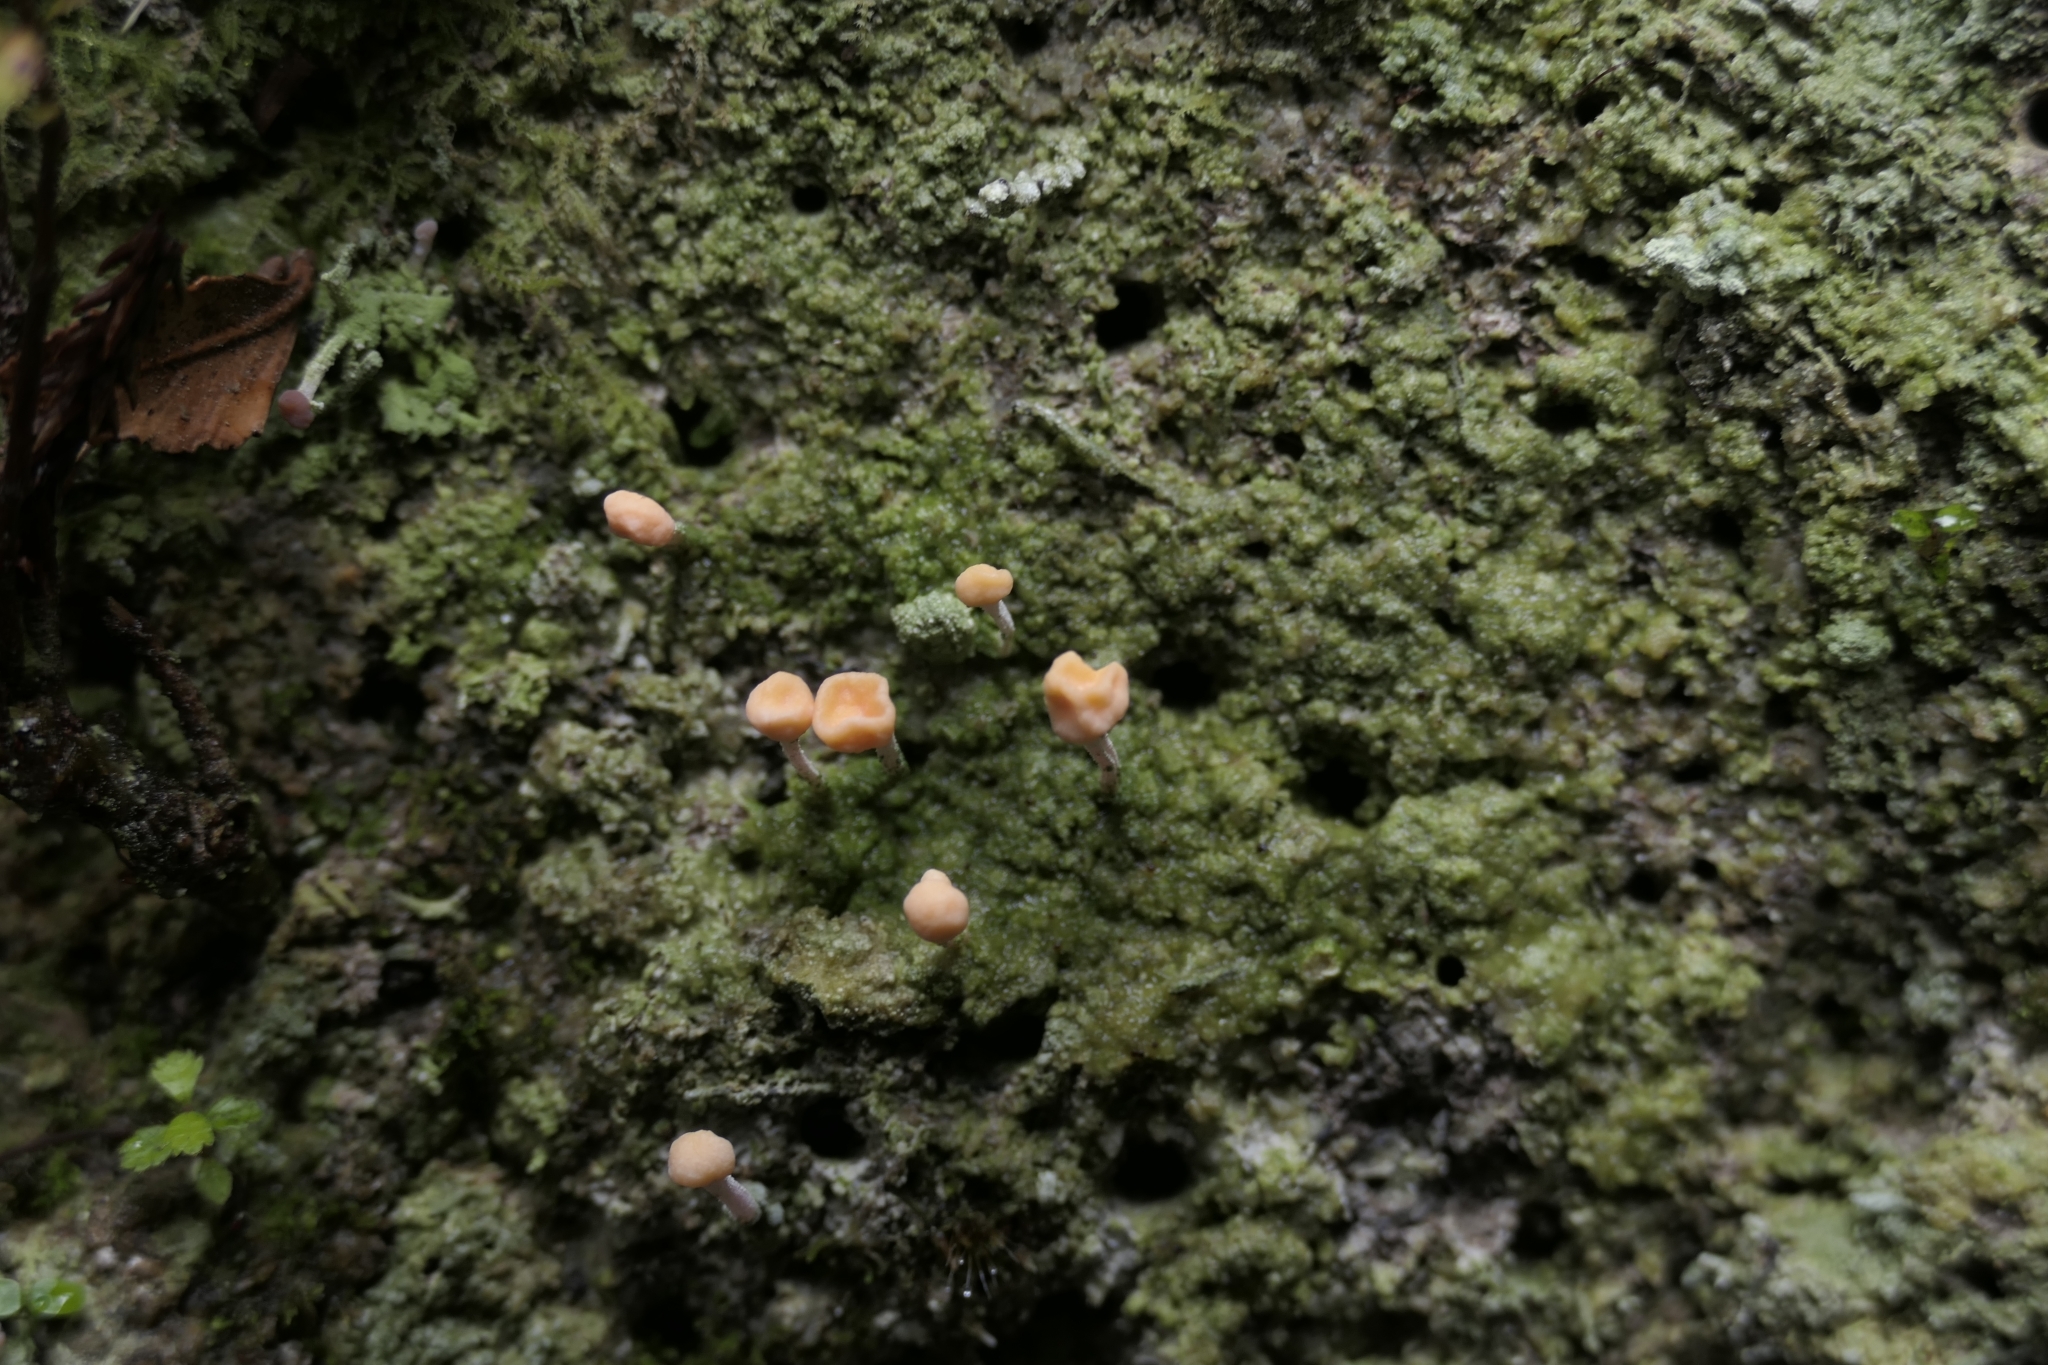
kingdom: Fungi
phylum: Ascomycota
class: Lecanoromycetes
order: Pertusariales
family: Icmadophilaceae
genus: Dibaeis
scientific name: Dibaeis arcuata
